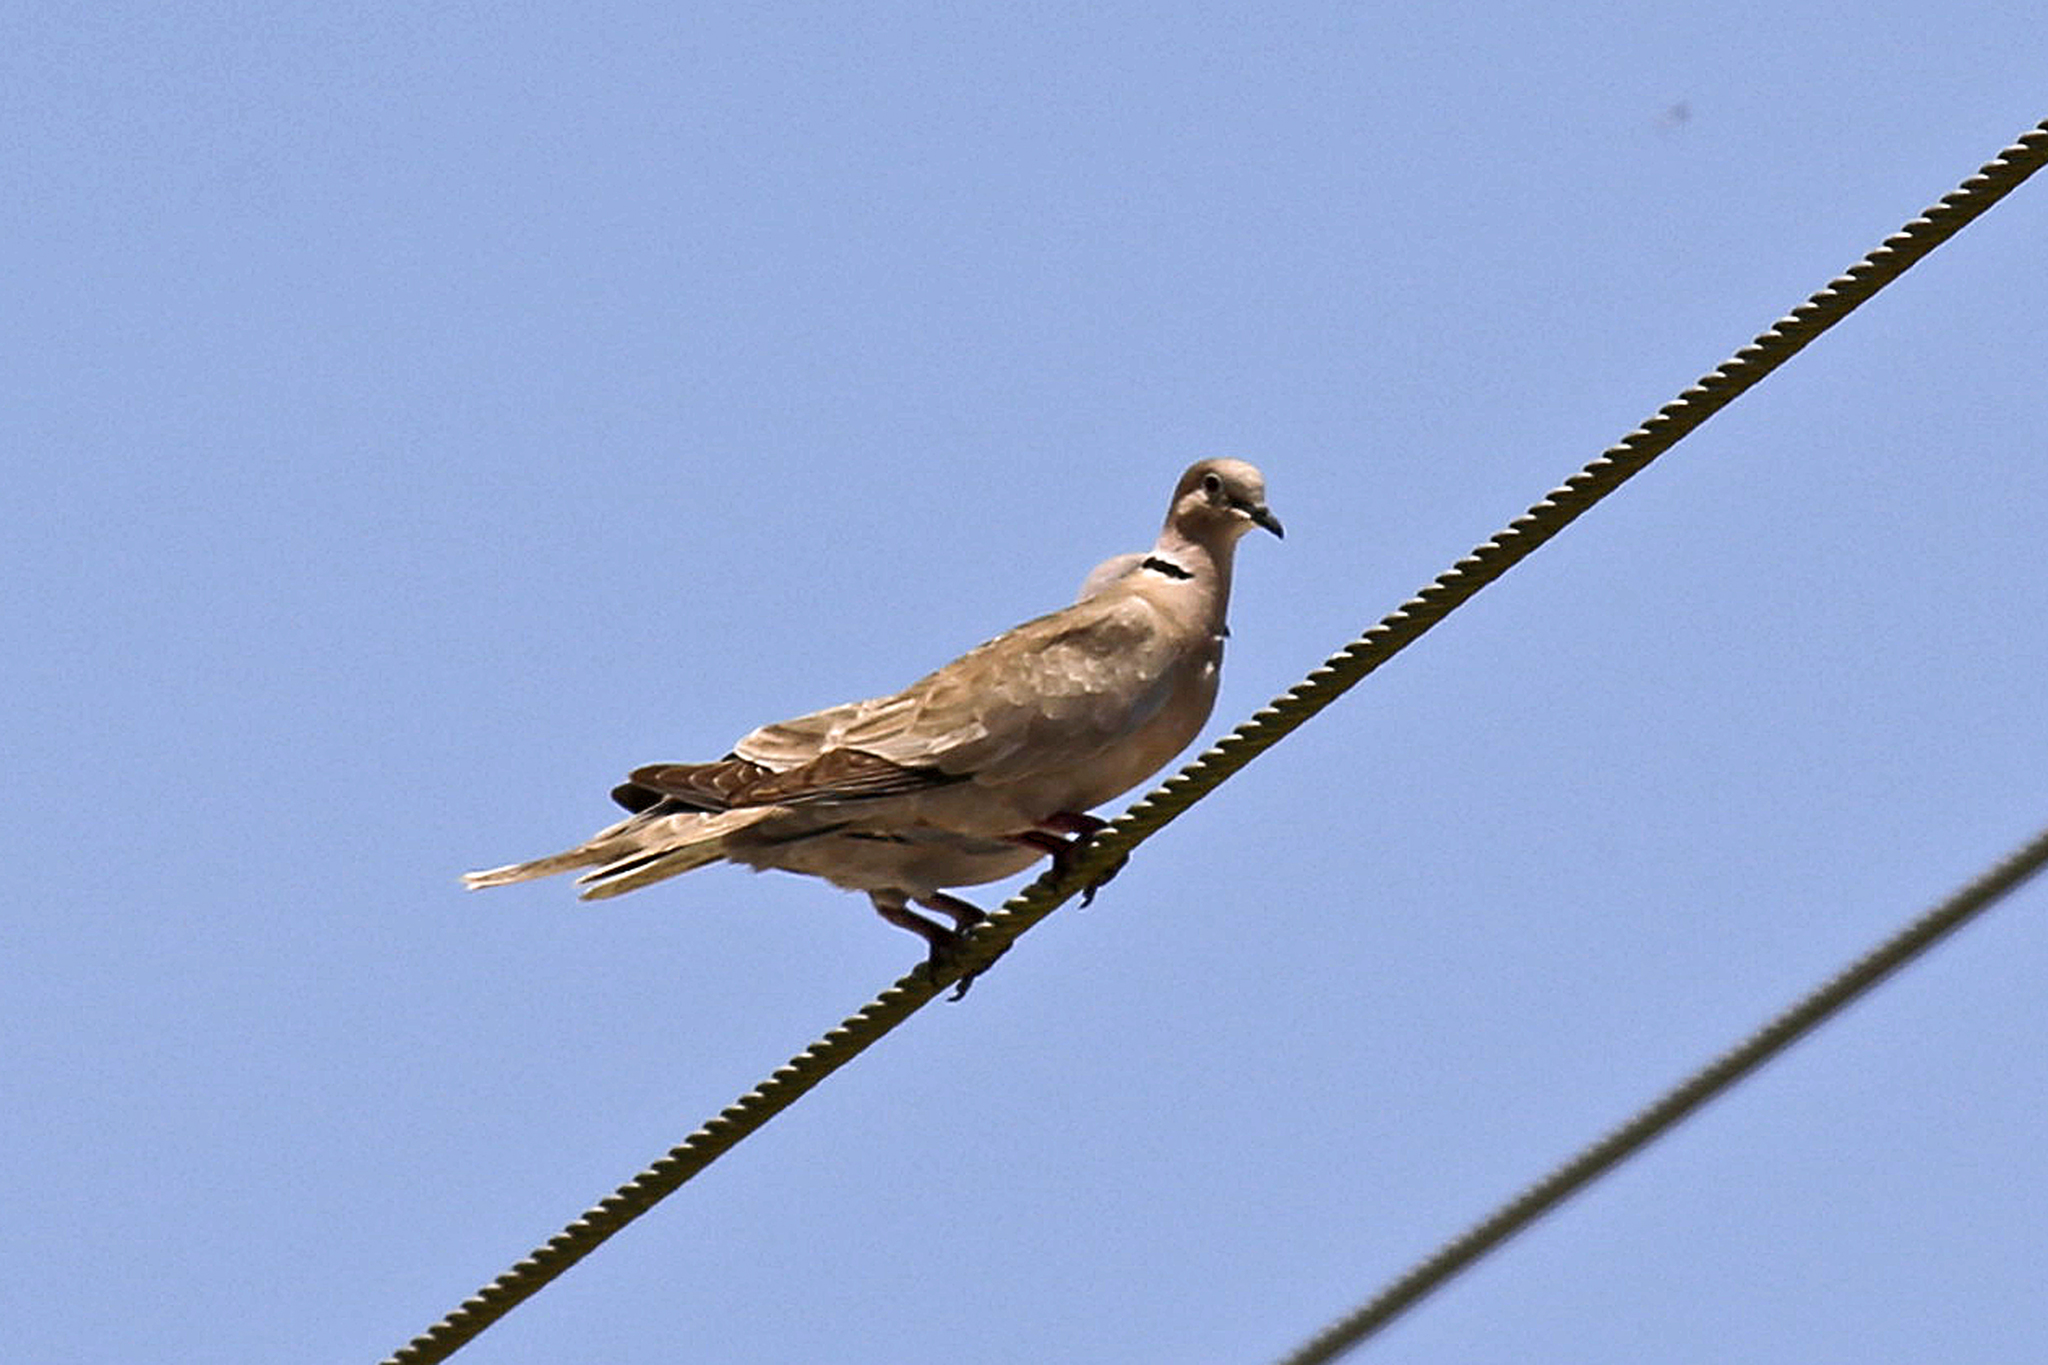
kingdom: Animalia
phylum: Chordata
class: Aves
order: Columbiformes
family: Columbidae
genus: Streptopelia
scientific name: Streptopelia decaocto
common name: Eurasian collared dove
